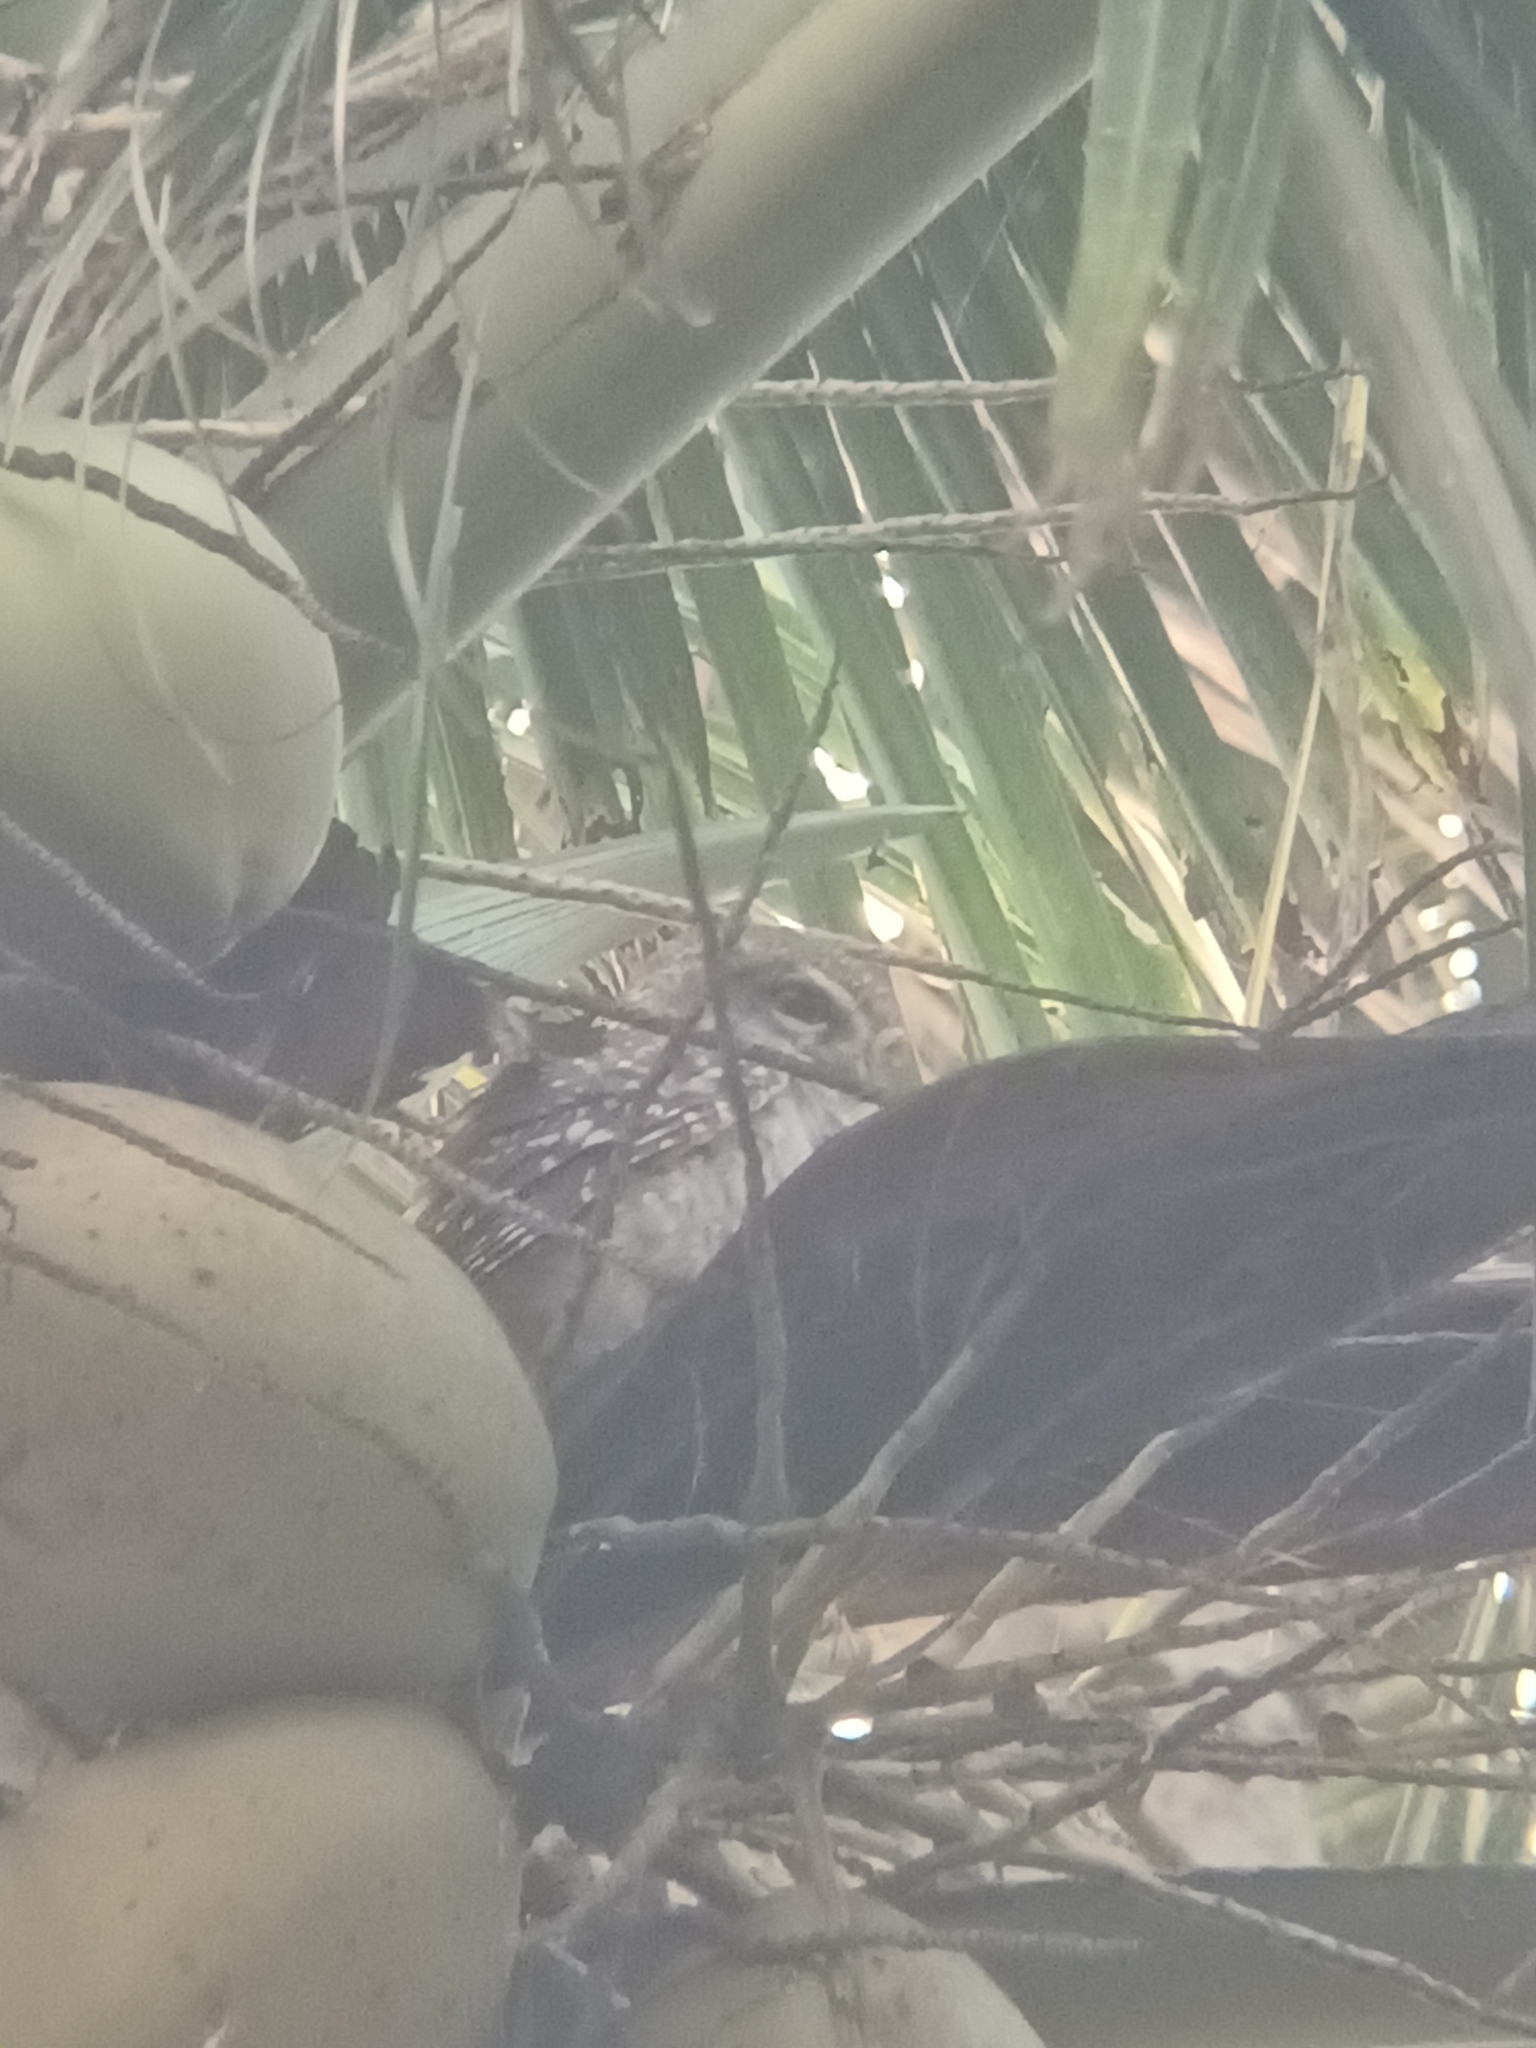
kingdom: Animalia
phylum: Chordata
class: Aves
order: Strigiformes
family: Strigidae
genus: Athene
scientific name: Athene brama
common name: Spotted owlet
